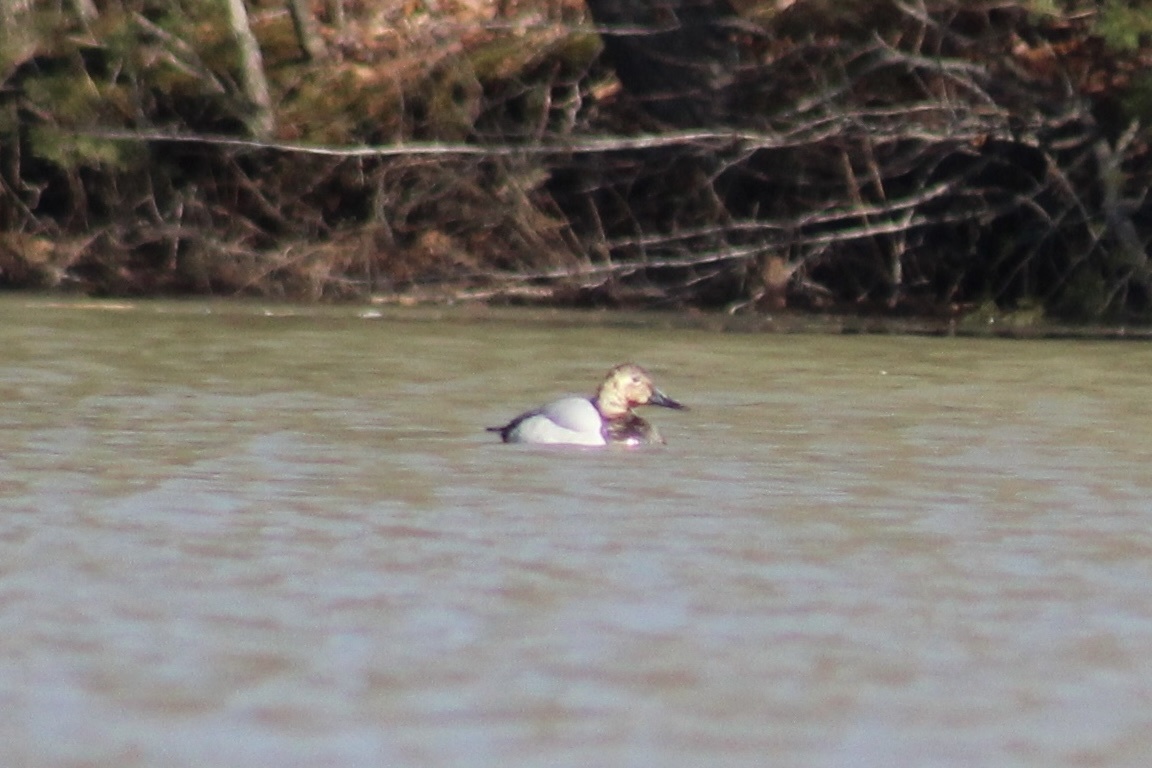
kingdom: Animalia
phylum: Chordata
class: Aves
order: Anseriformes
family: Anatidae
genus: Aythya
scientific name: Aythya valisineria
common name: Canvasback
